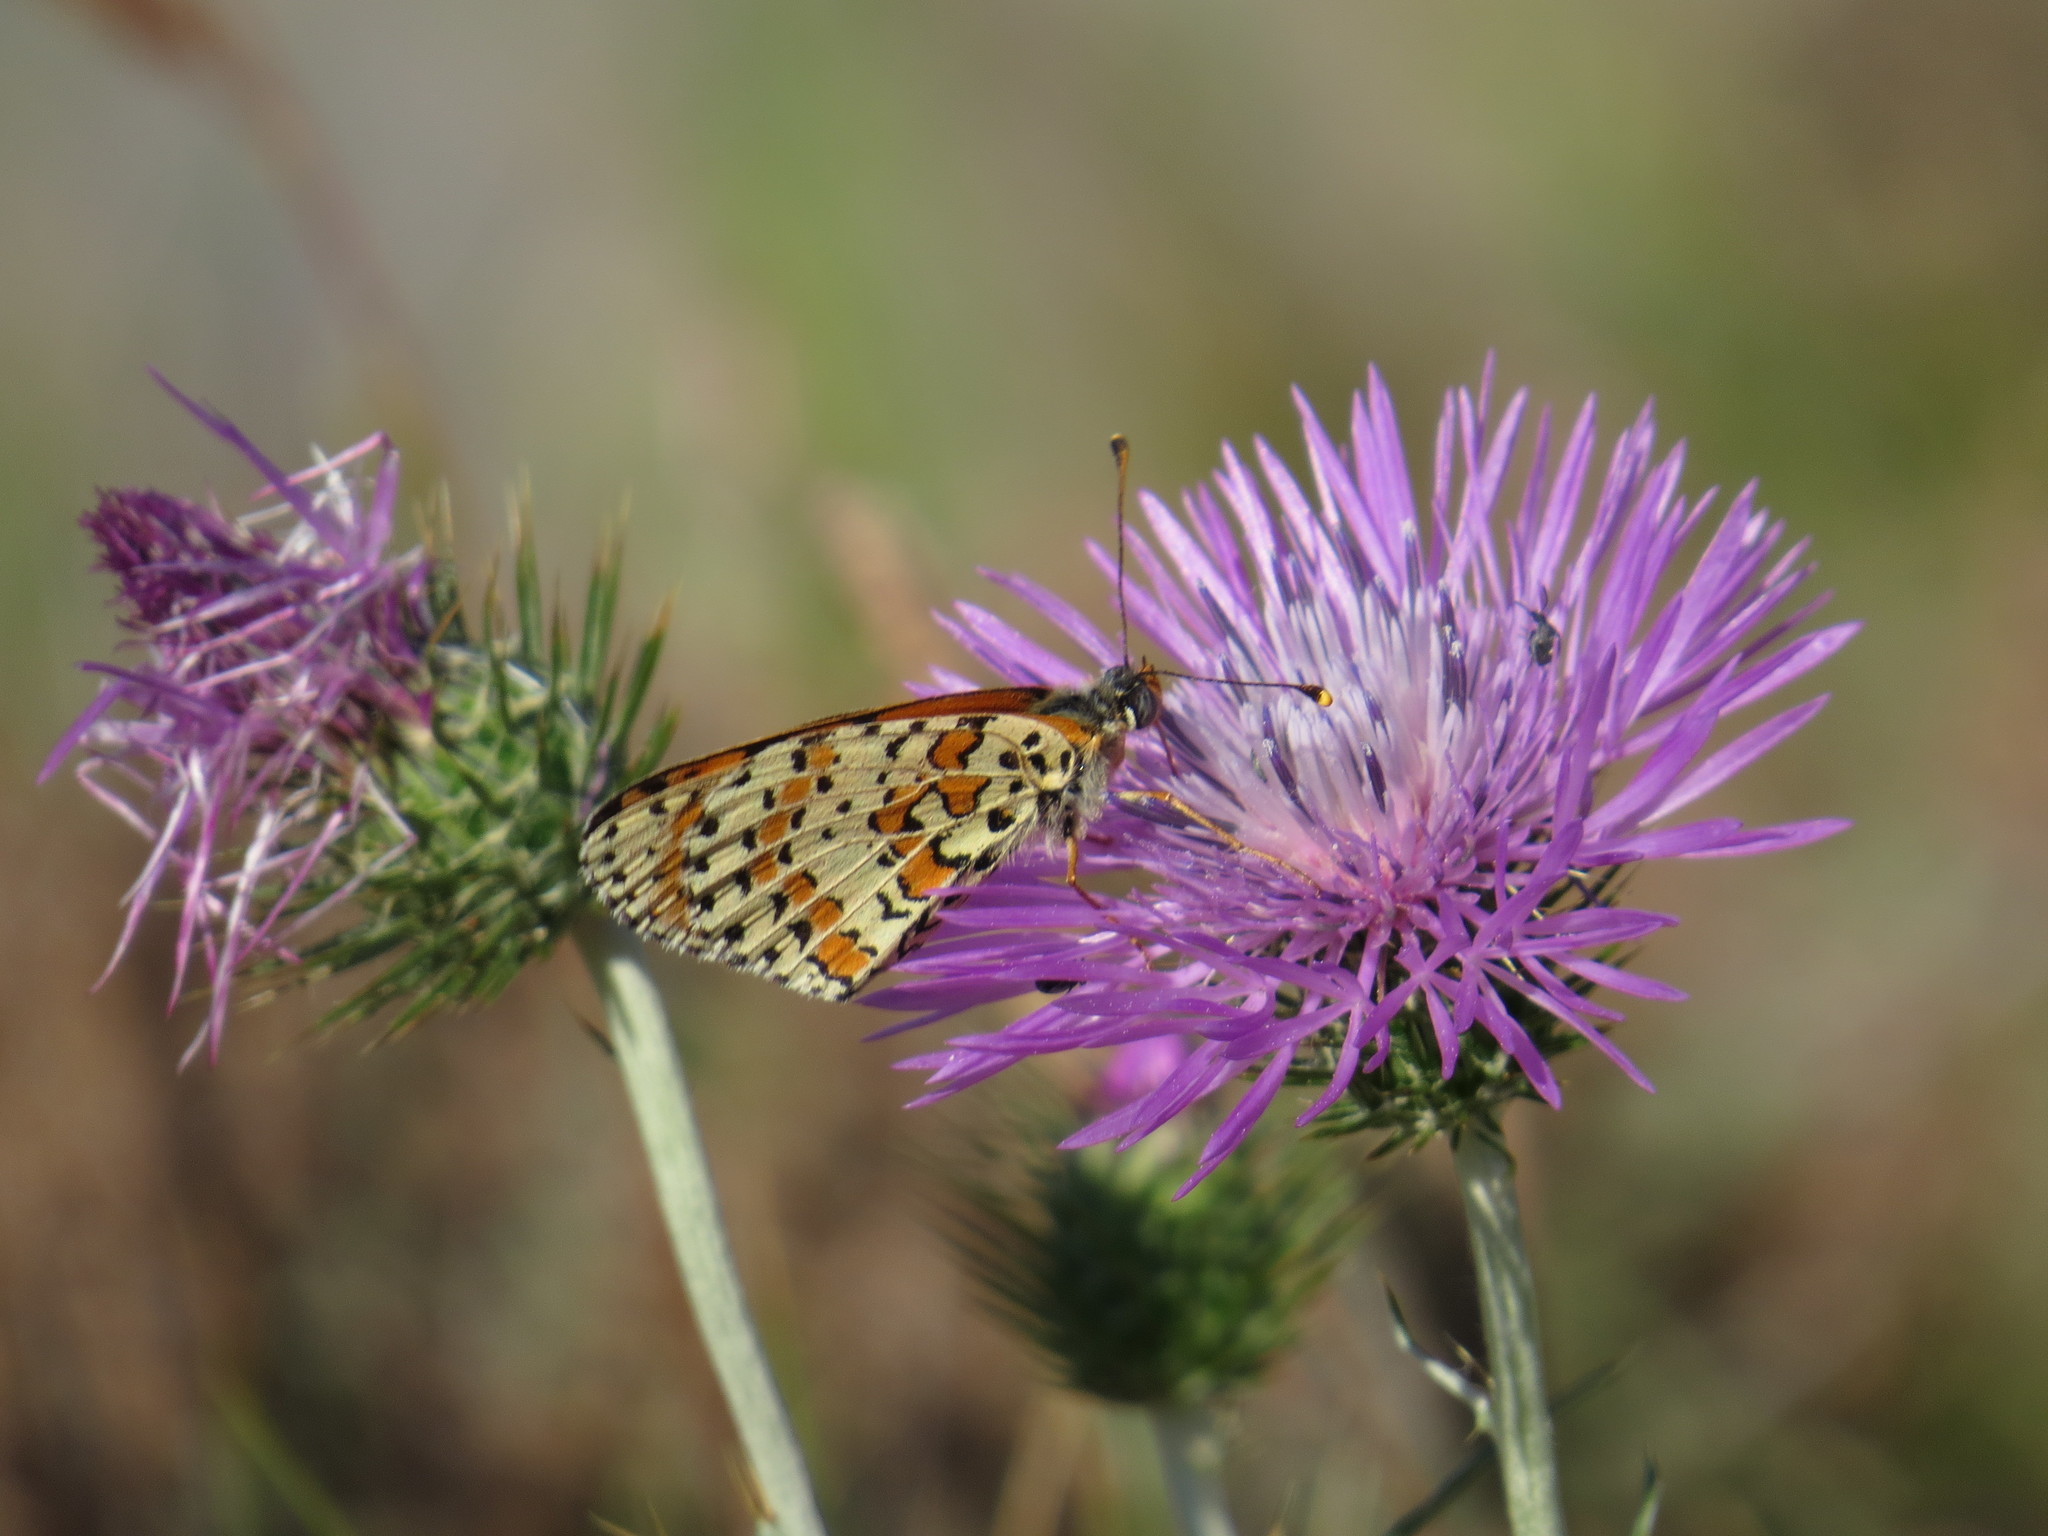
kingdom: Animalia
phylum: Arthropoda
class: Insecta
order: Lepidoptera
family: Nymphalidae
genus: Melitaea
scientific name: Melitaea didyma
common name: Spotted fritillary
